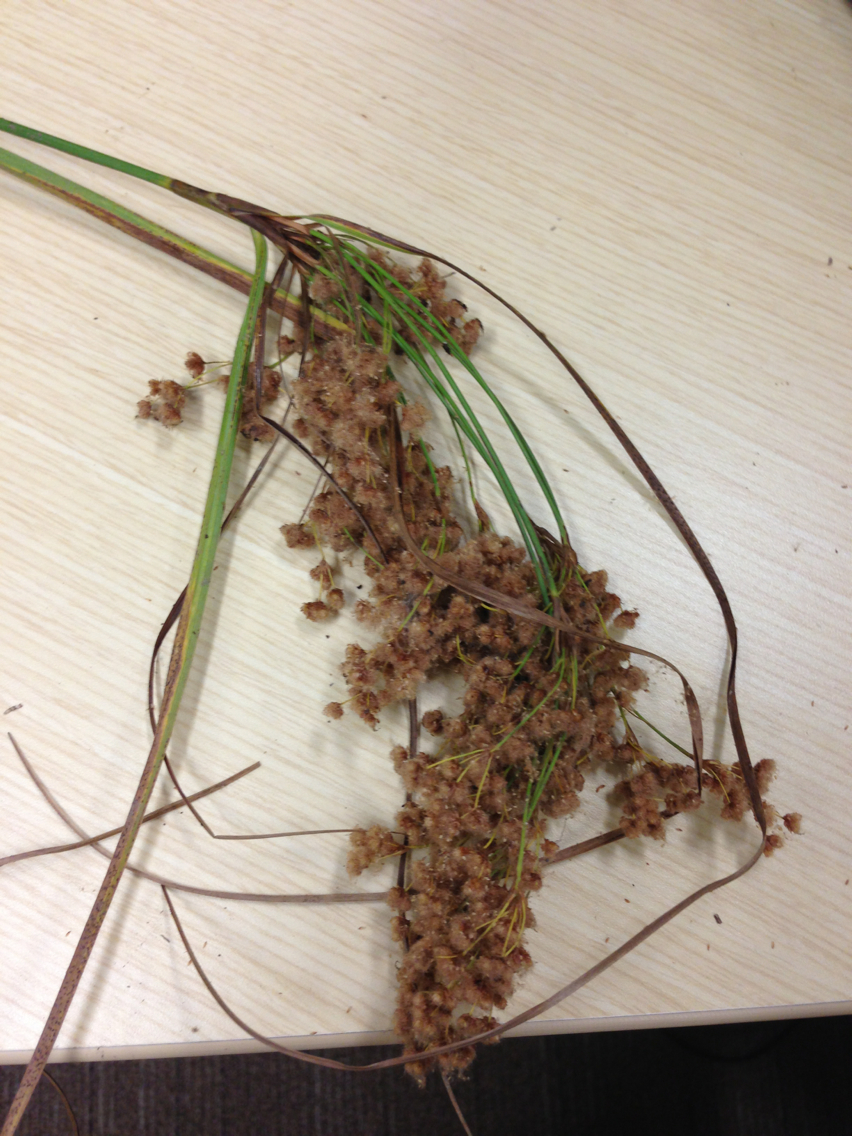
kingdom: Plantae
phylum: Tracheophyta
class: Liliopsida
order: Poales
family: Cyperaceae
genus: Scirpus
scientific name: Scirpus cyperinus
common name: Black-sheathed bulrush
